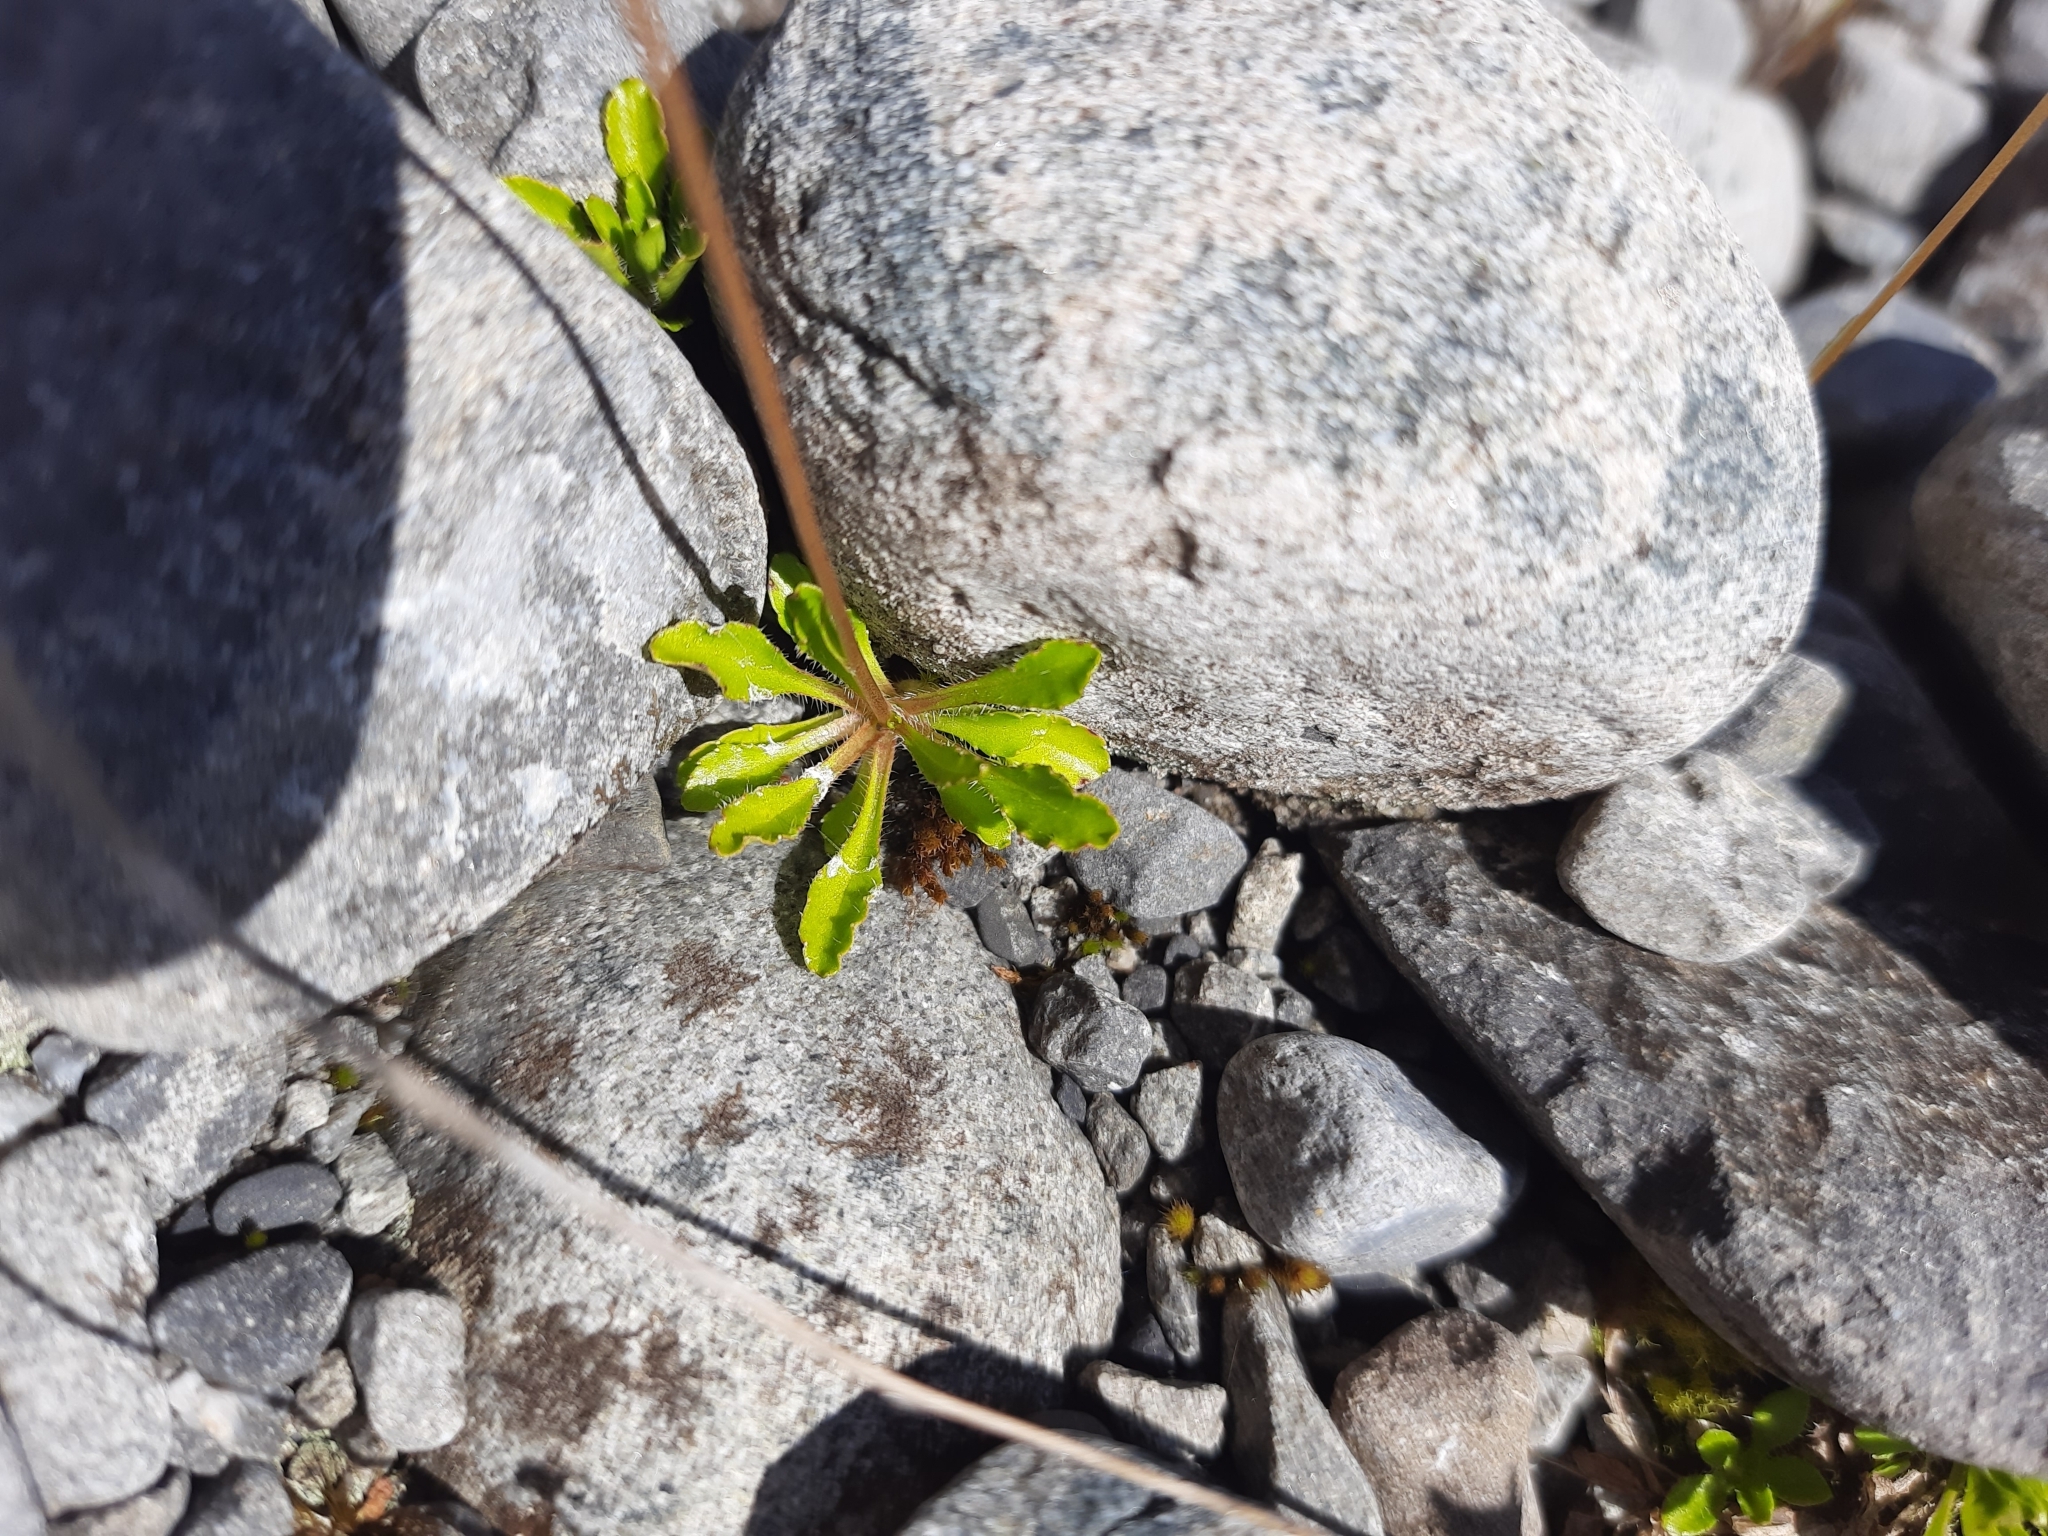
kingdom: Plantae
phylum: Tracheophyta
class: Magnoliopsida
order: Asterales
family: Campanulaceae
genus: Wahlenbergia
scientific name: Wahlenbergia albomarginata
